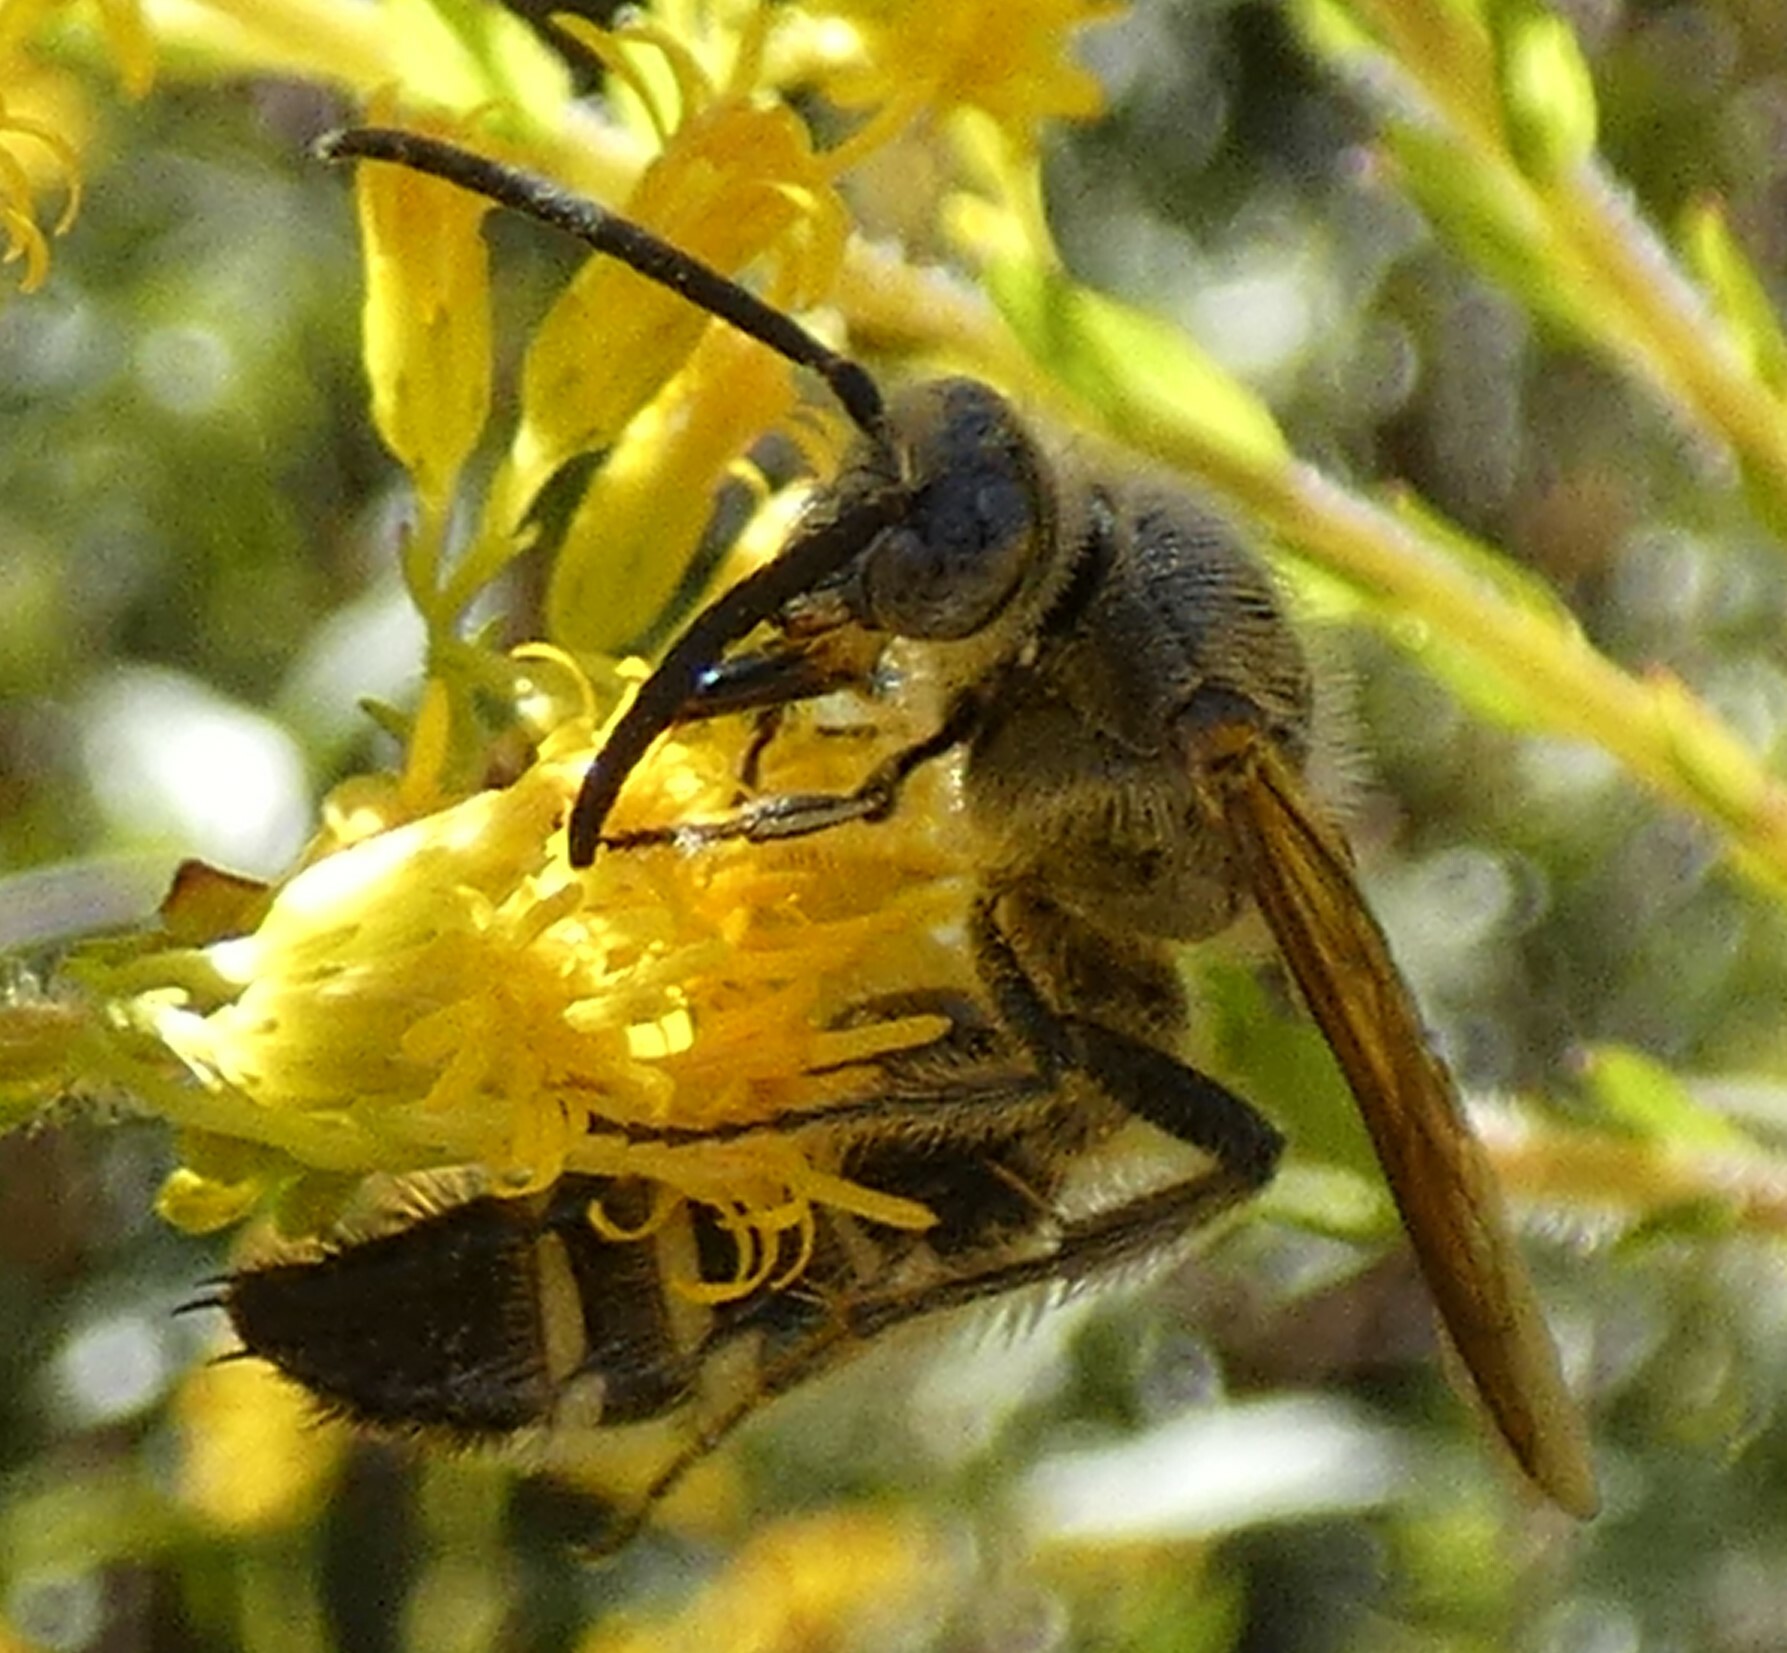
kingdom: Animalia
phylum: Arthropoda
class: Insecta
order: Hymenoptera
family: Scoliidae
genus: Dielis
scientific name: Dielis
